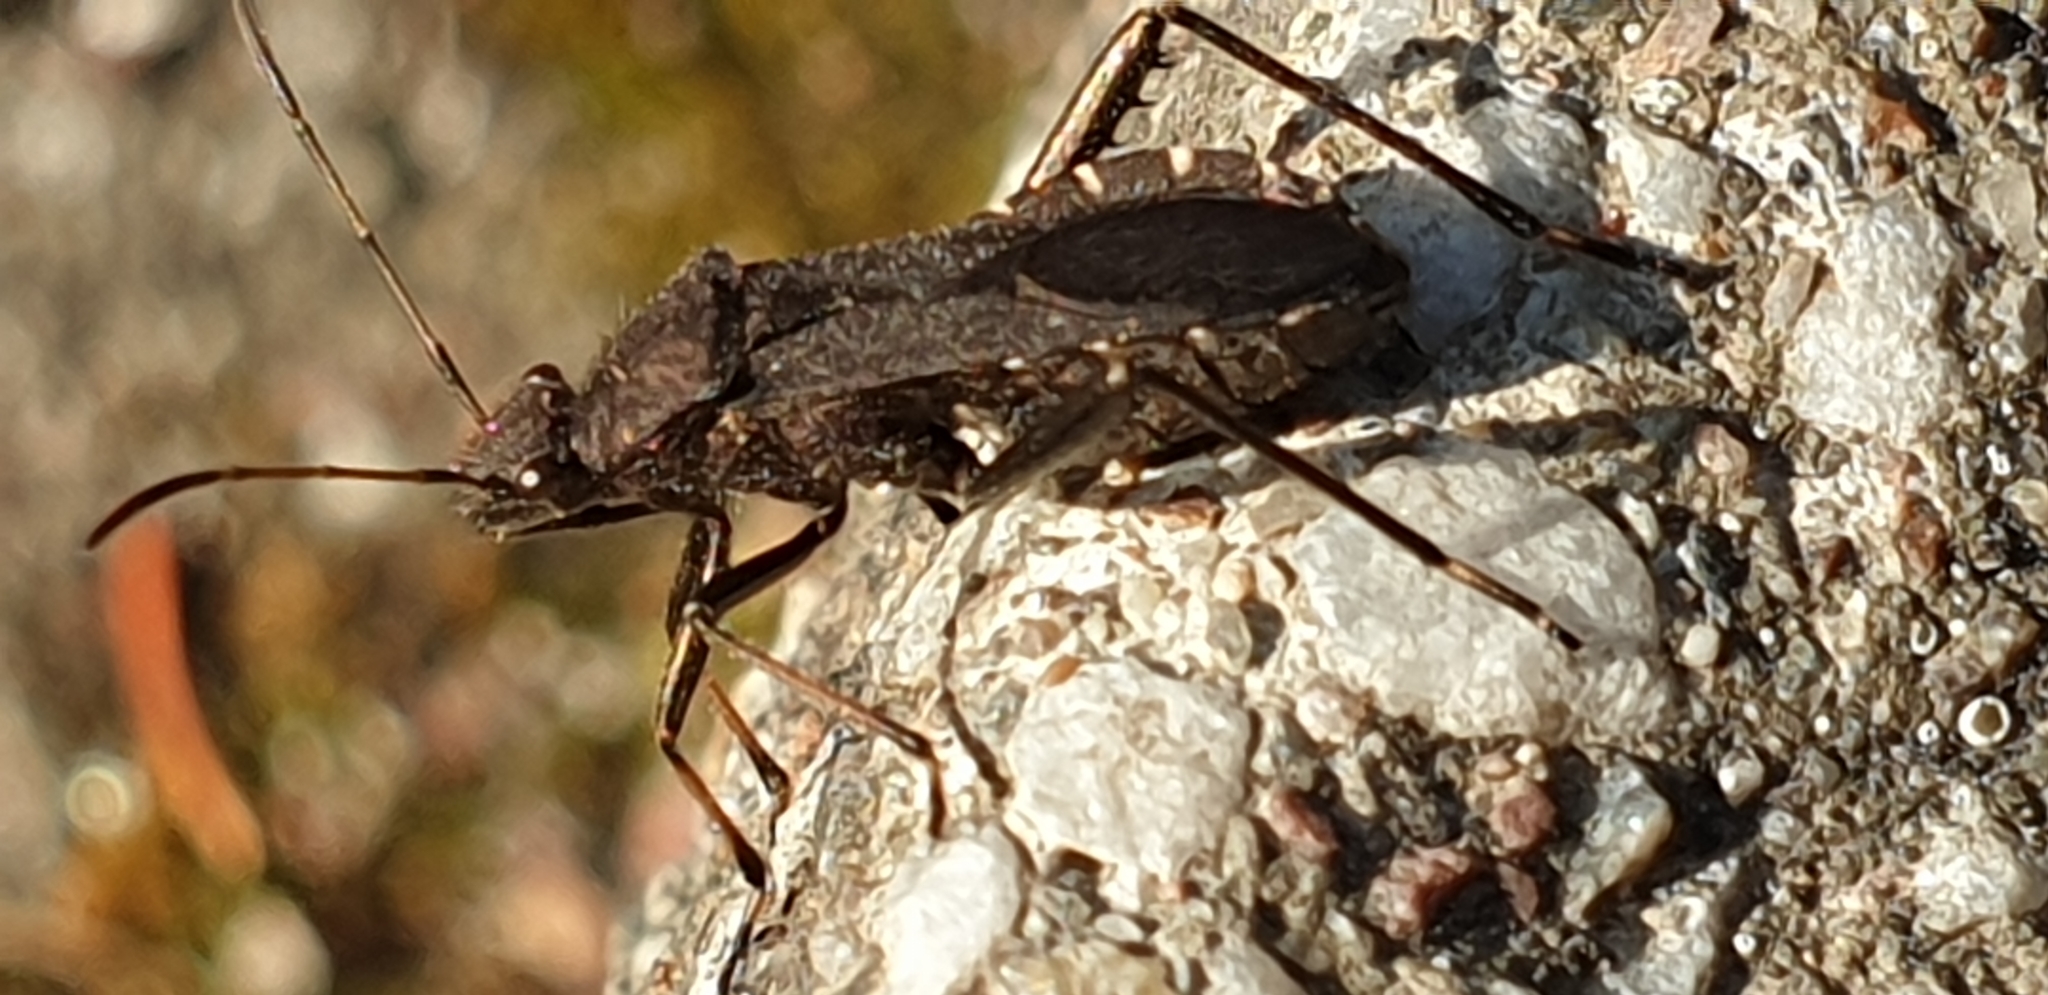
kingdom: Animalia
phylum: Arthropoda
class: Insecta
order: Hemiptera
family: Alydidae
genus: Alydus
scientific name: Alydus calcaratus
